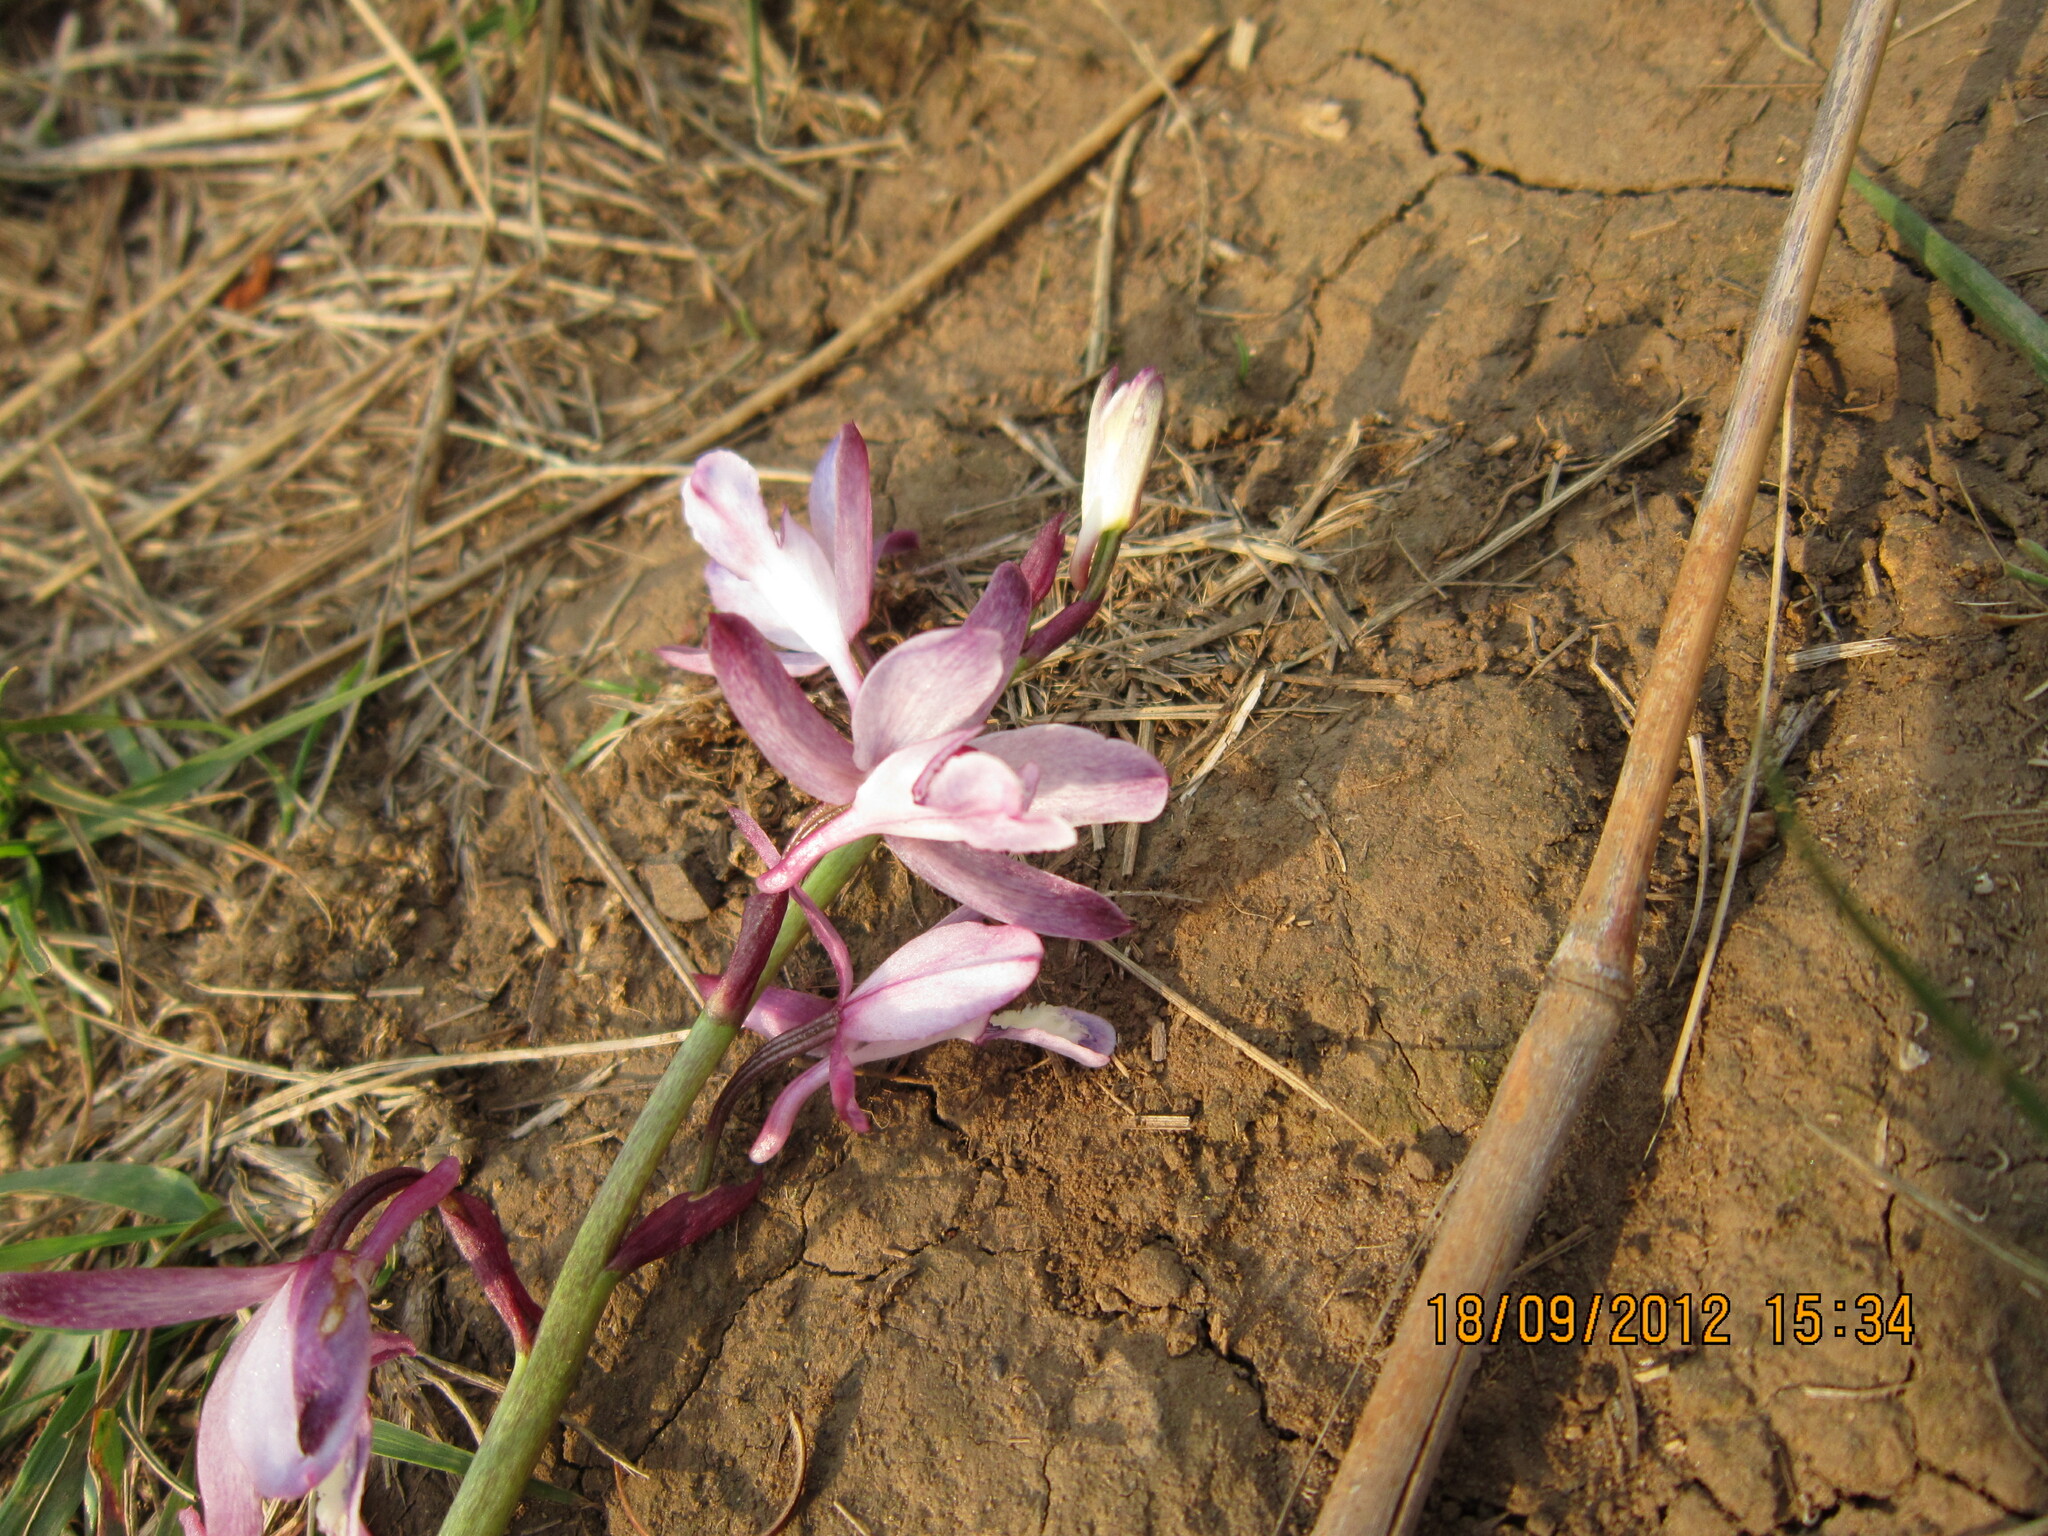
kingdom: Plantae
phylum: Tracheophyta
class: Liliopsida
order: Asparagales
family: Orchidaceae
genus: Eulophia
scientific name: Eulophia hians
